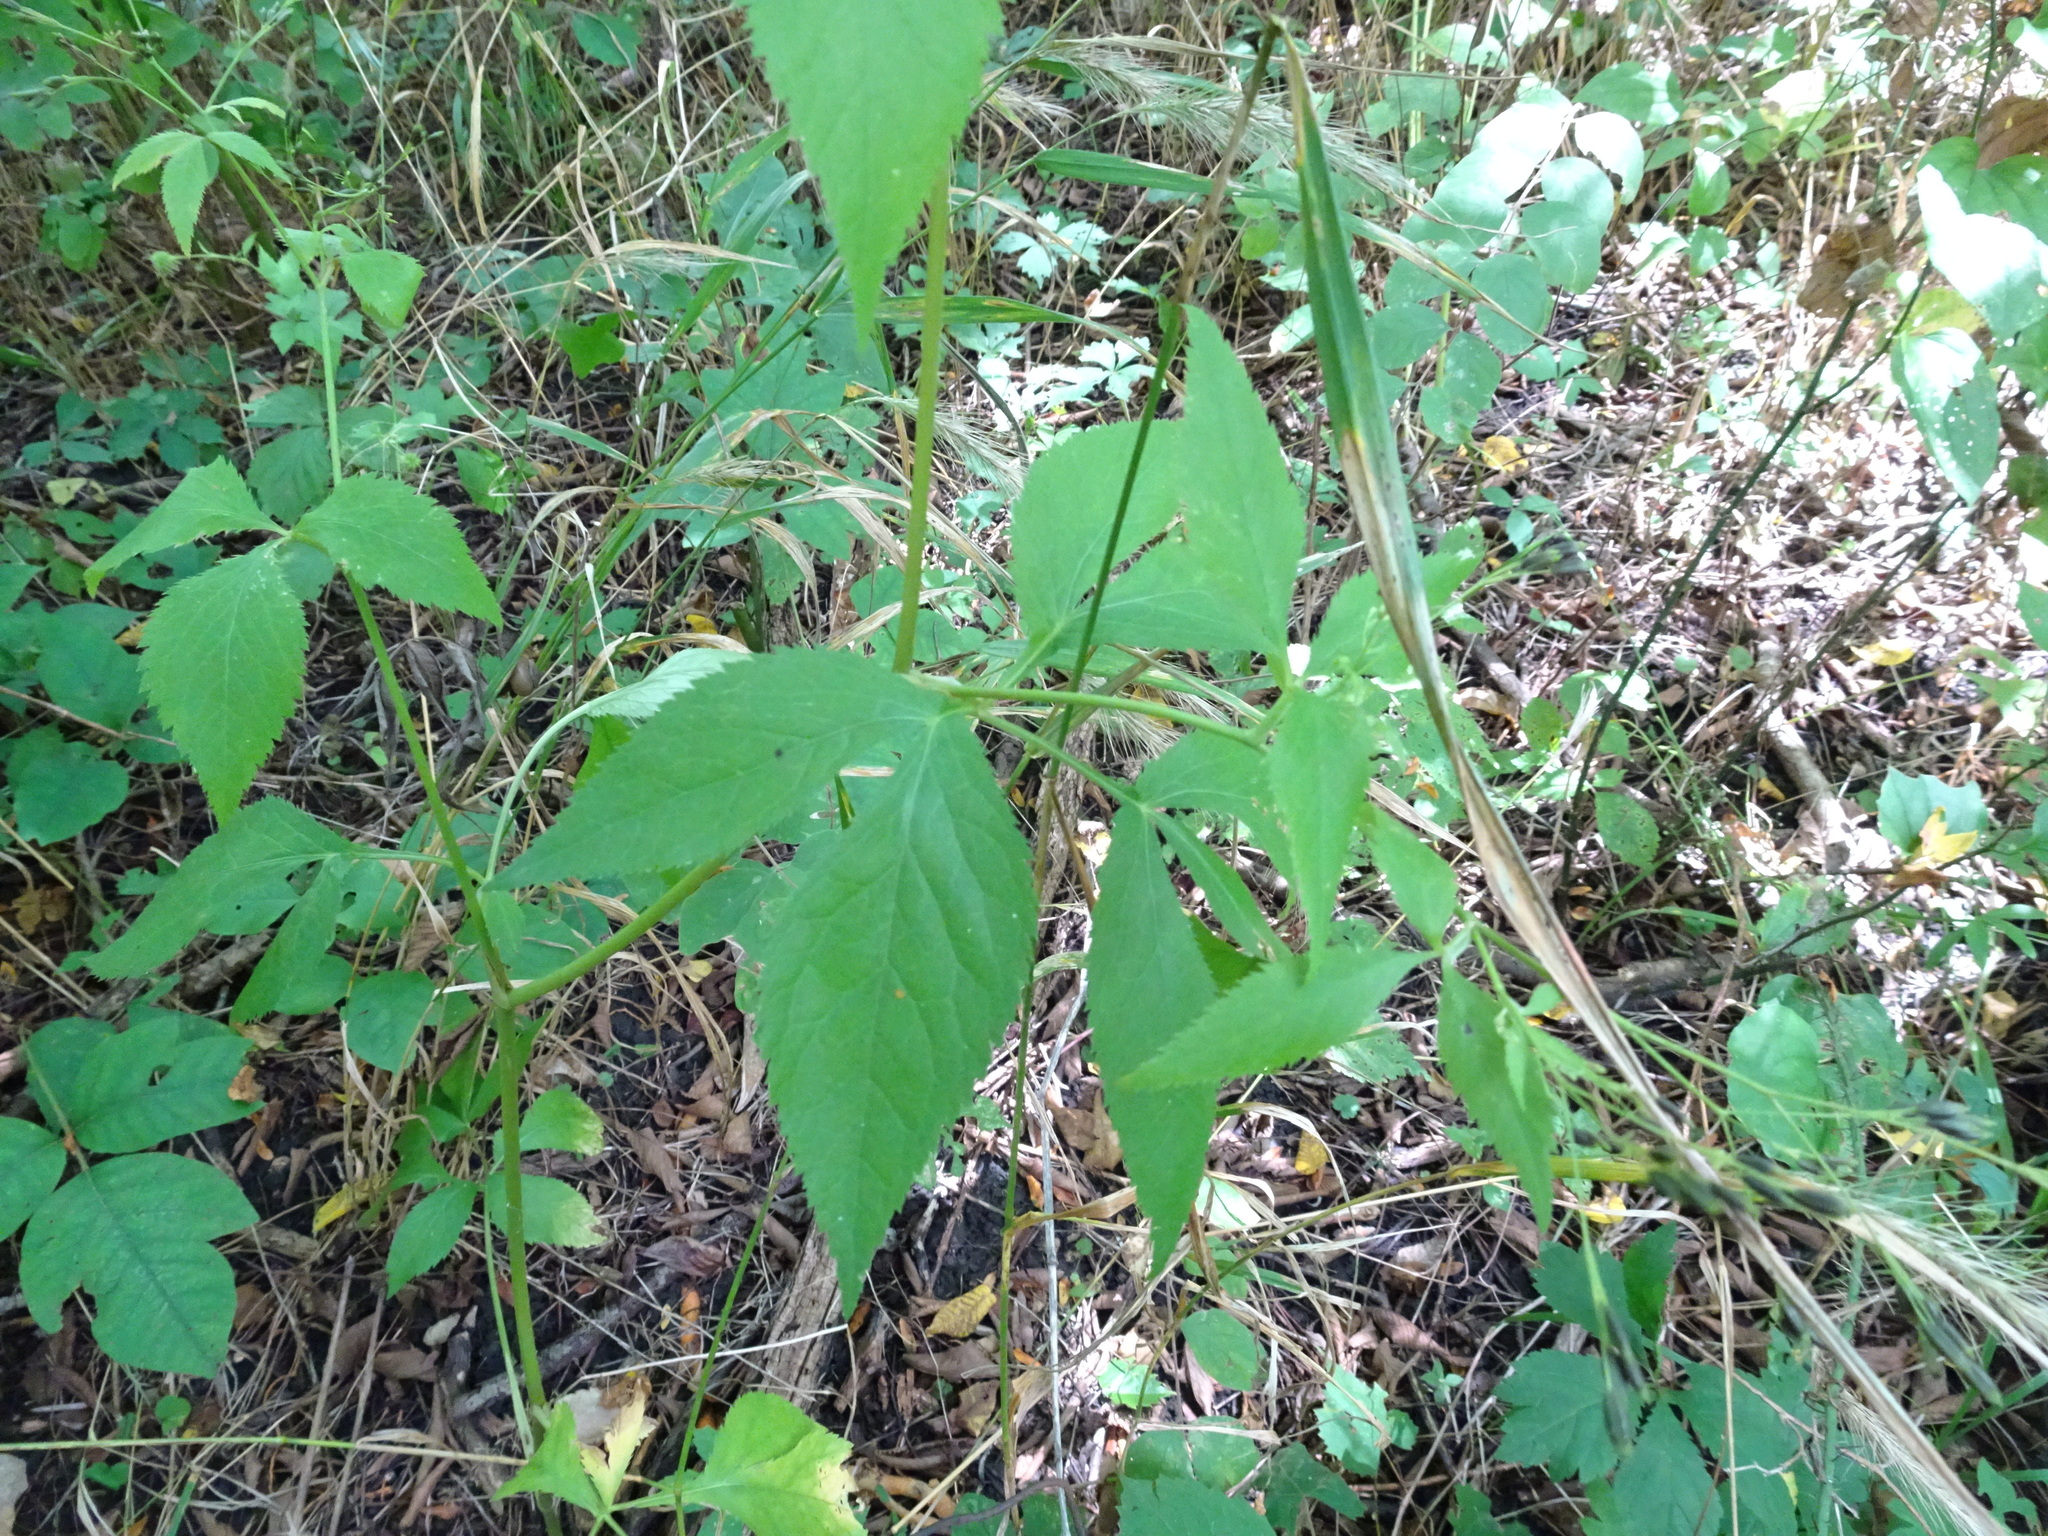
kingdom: Plantae
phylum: Tracheophyta
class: Magnoliopsida
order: Apiales
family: Apiaceae
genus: Cryptotaenia
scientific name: Cryptotaenia canadensis
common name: Honewort
